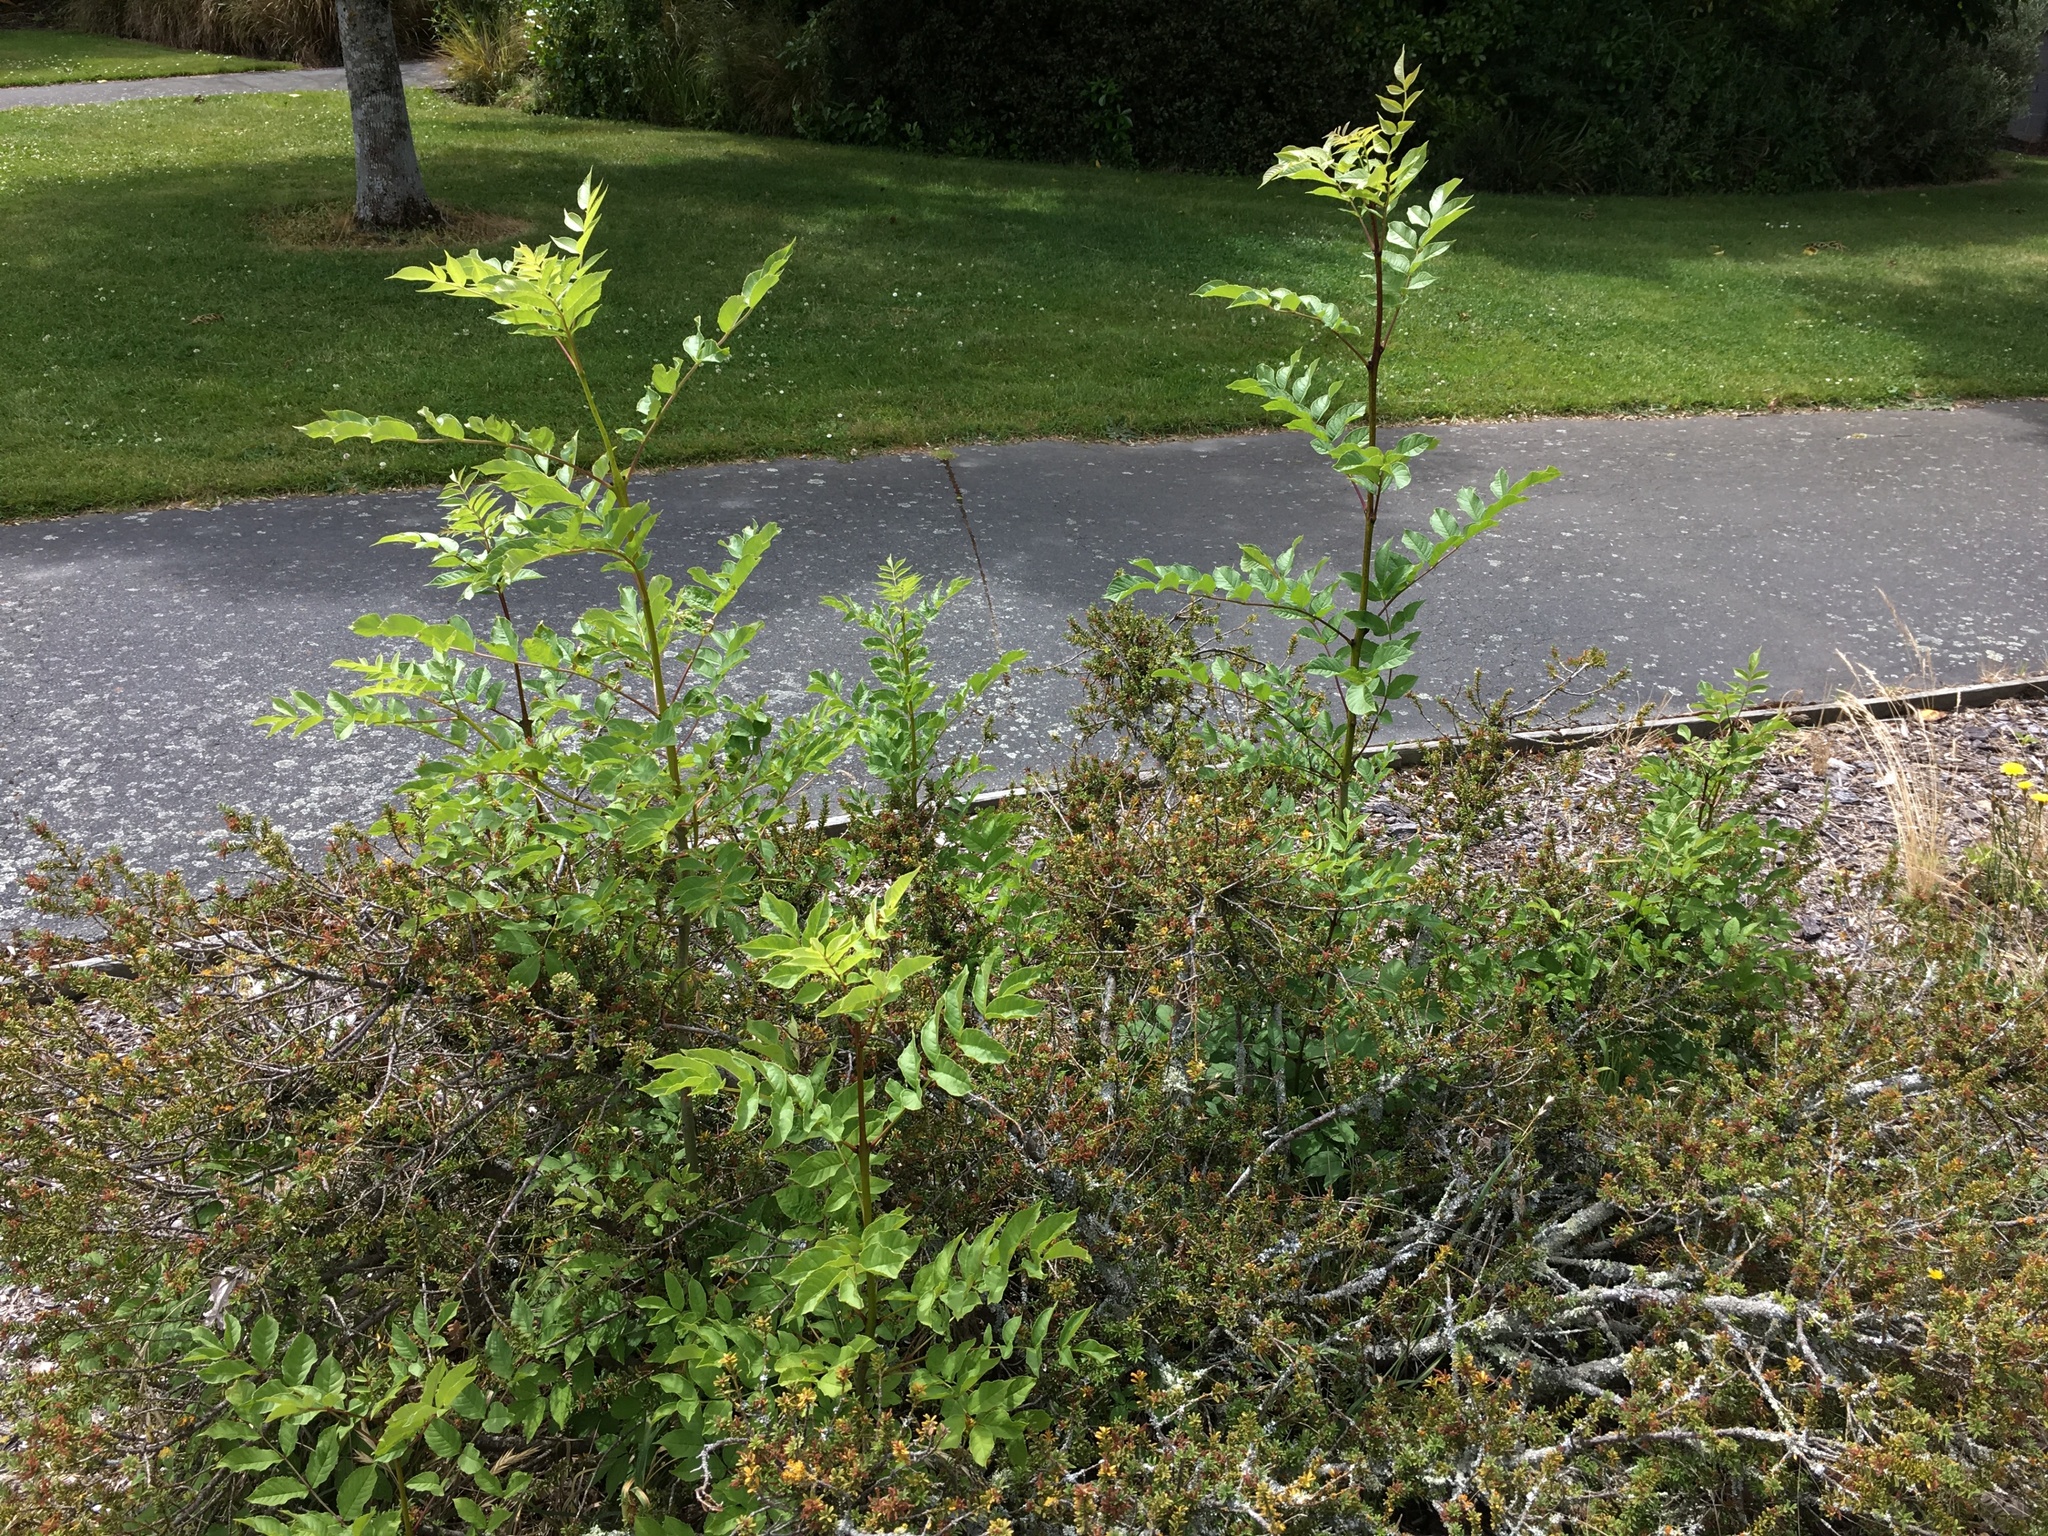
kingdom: Plantae
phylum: Tracheophyta
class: Magnoliopsida
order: Lamiales
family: Oleaceae
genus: Fraxinus
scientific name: Fraxinus excelsior
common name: European ash
